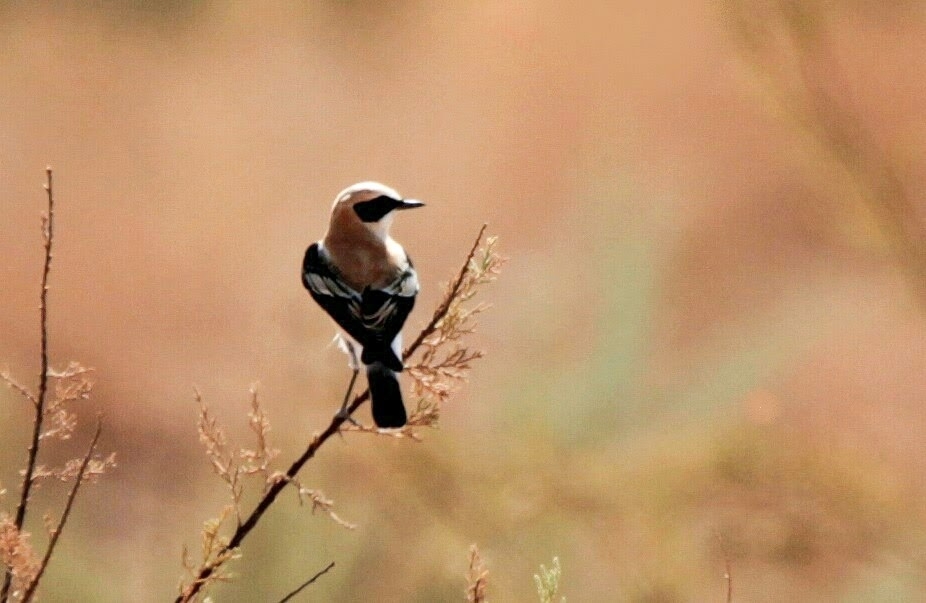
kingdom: Animalia
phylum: Chordata
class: Aves
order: Passeriformes
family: Muscicapidae
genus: Oenanthe
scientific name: Oenanthe hispanica
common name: Black-eared wheatear
